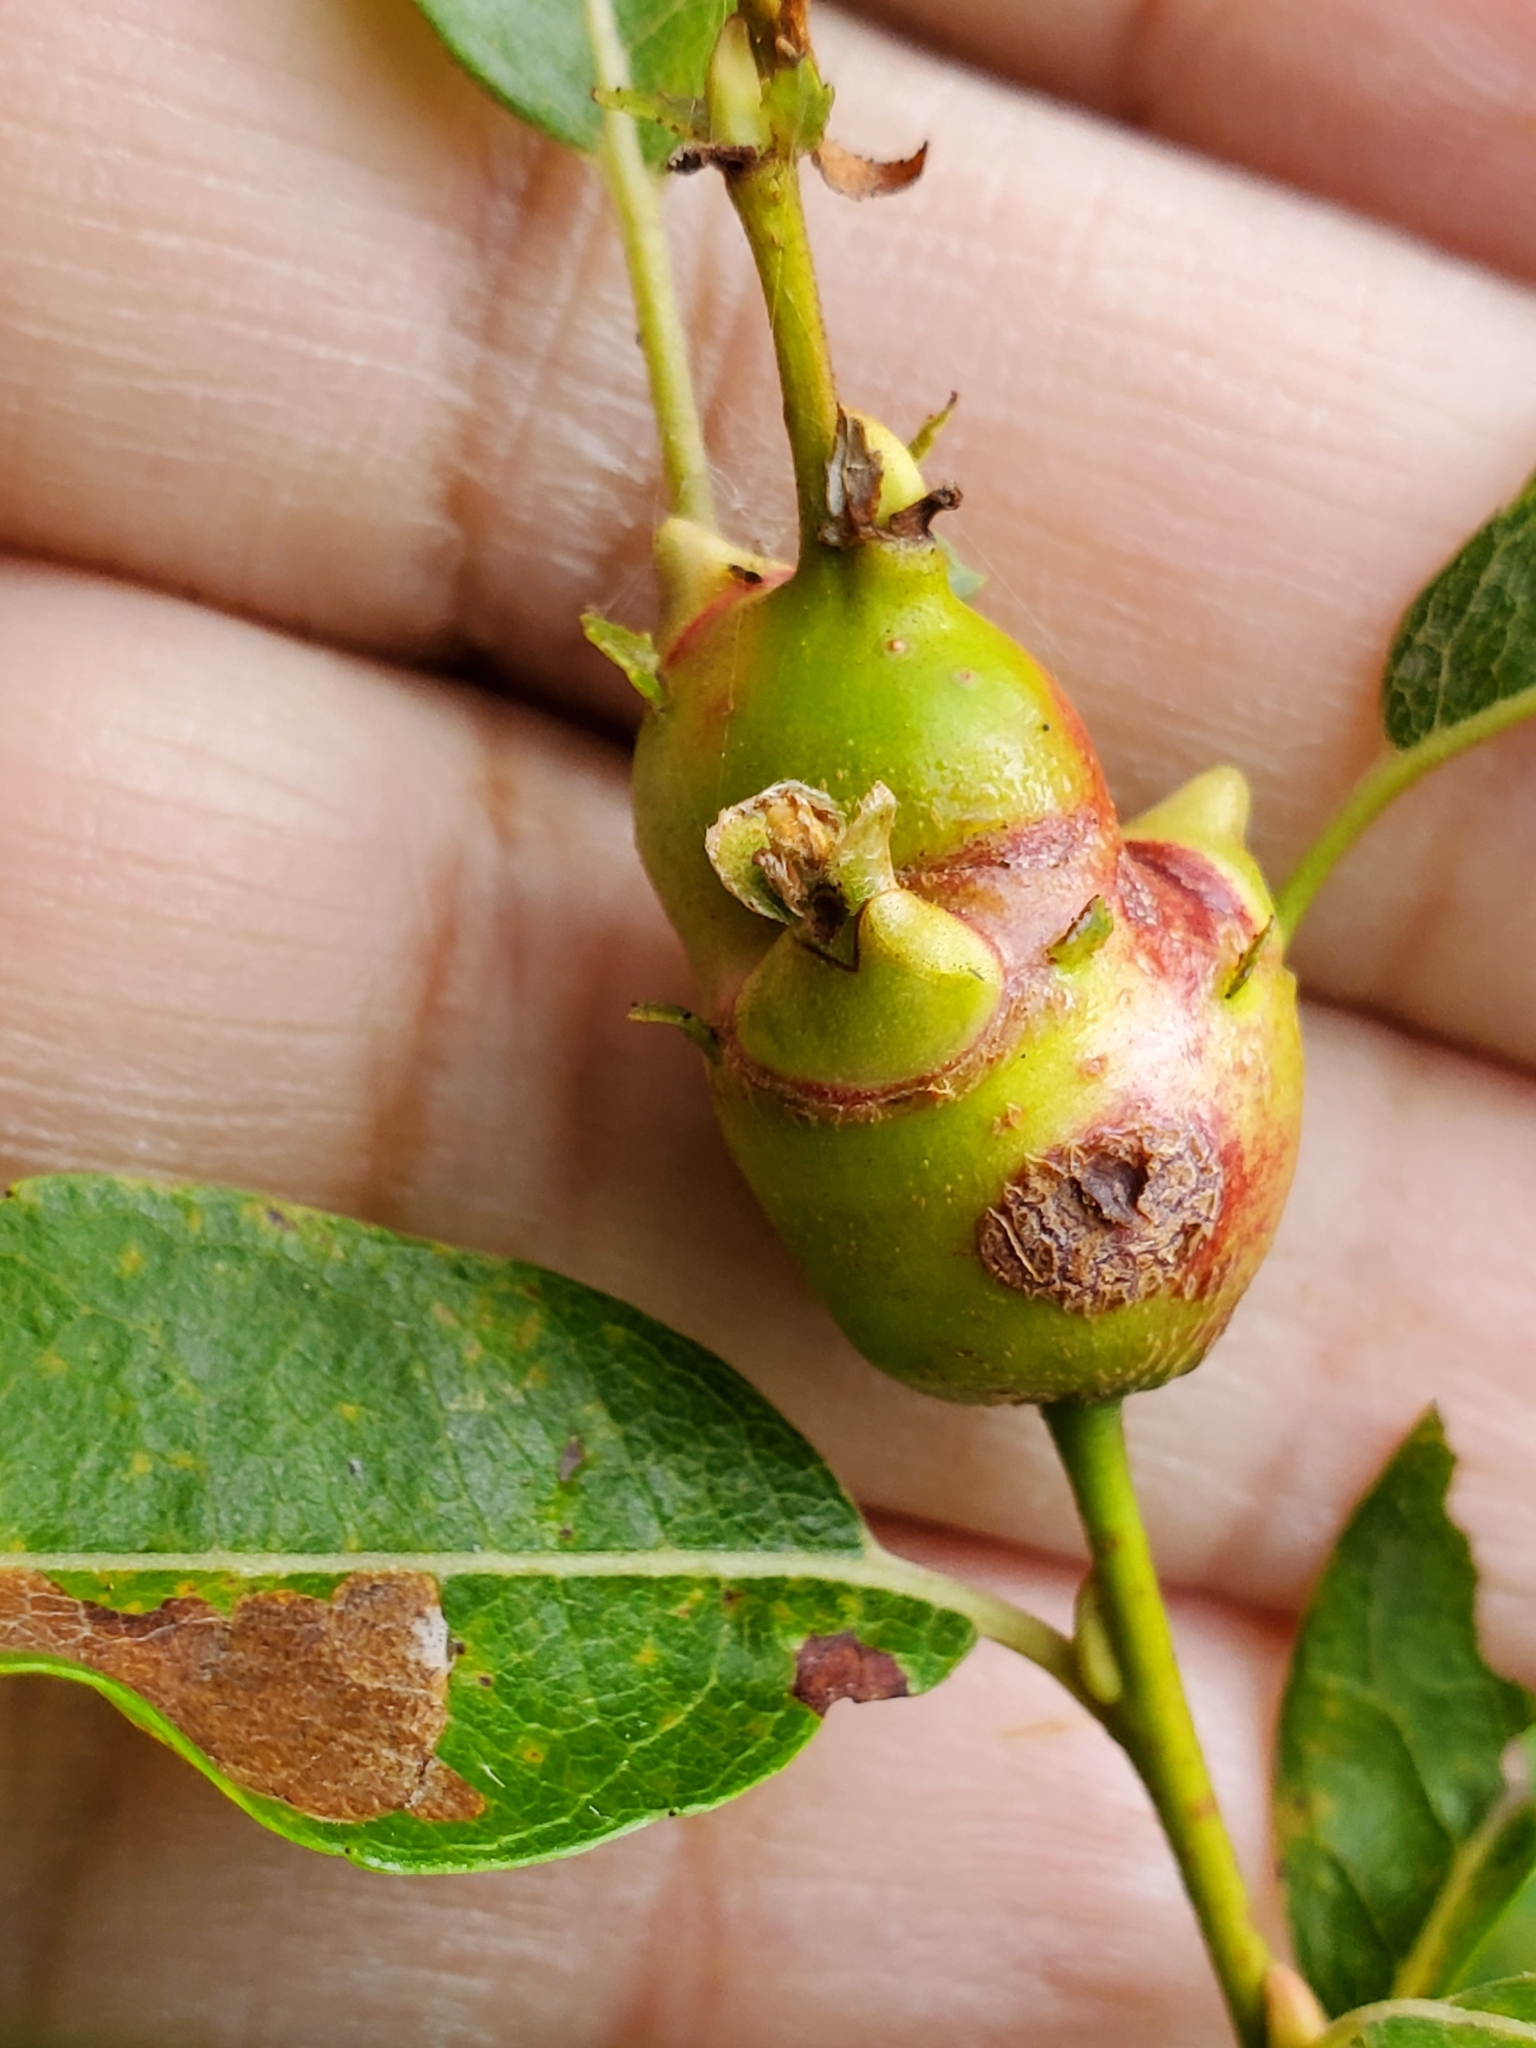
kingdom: Animalia
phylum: Arthropoda
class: Insecta
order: Diptera
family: Cecidomyiidae
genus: Rabdophaga
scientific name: Rabdophaga salicisbatatas
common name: Potato gall midge
